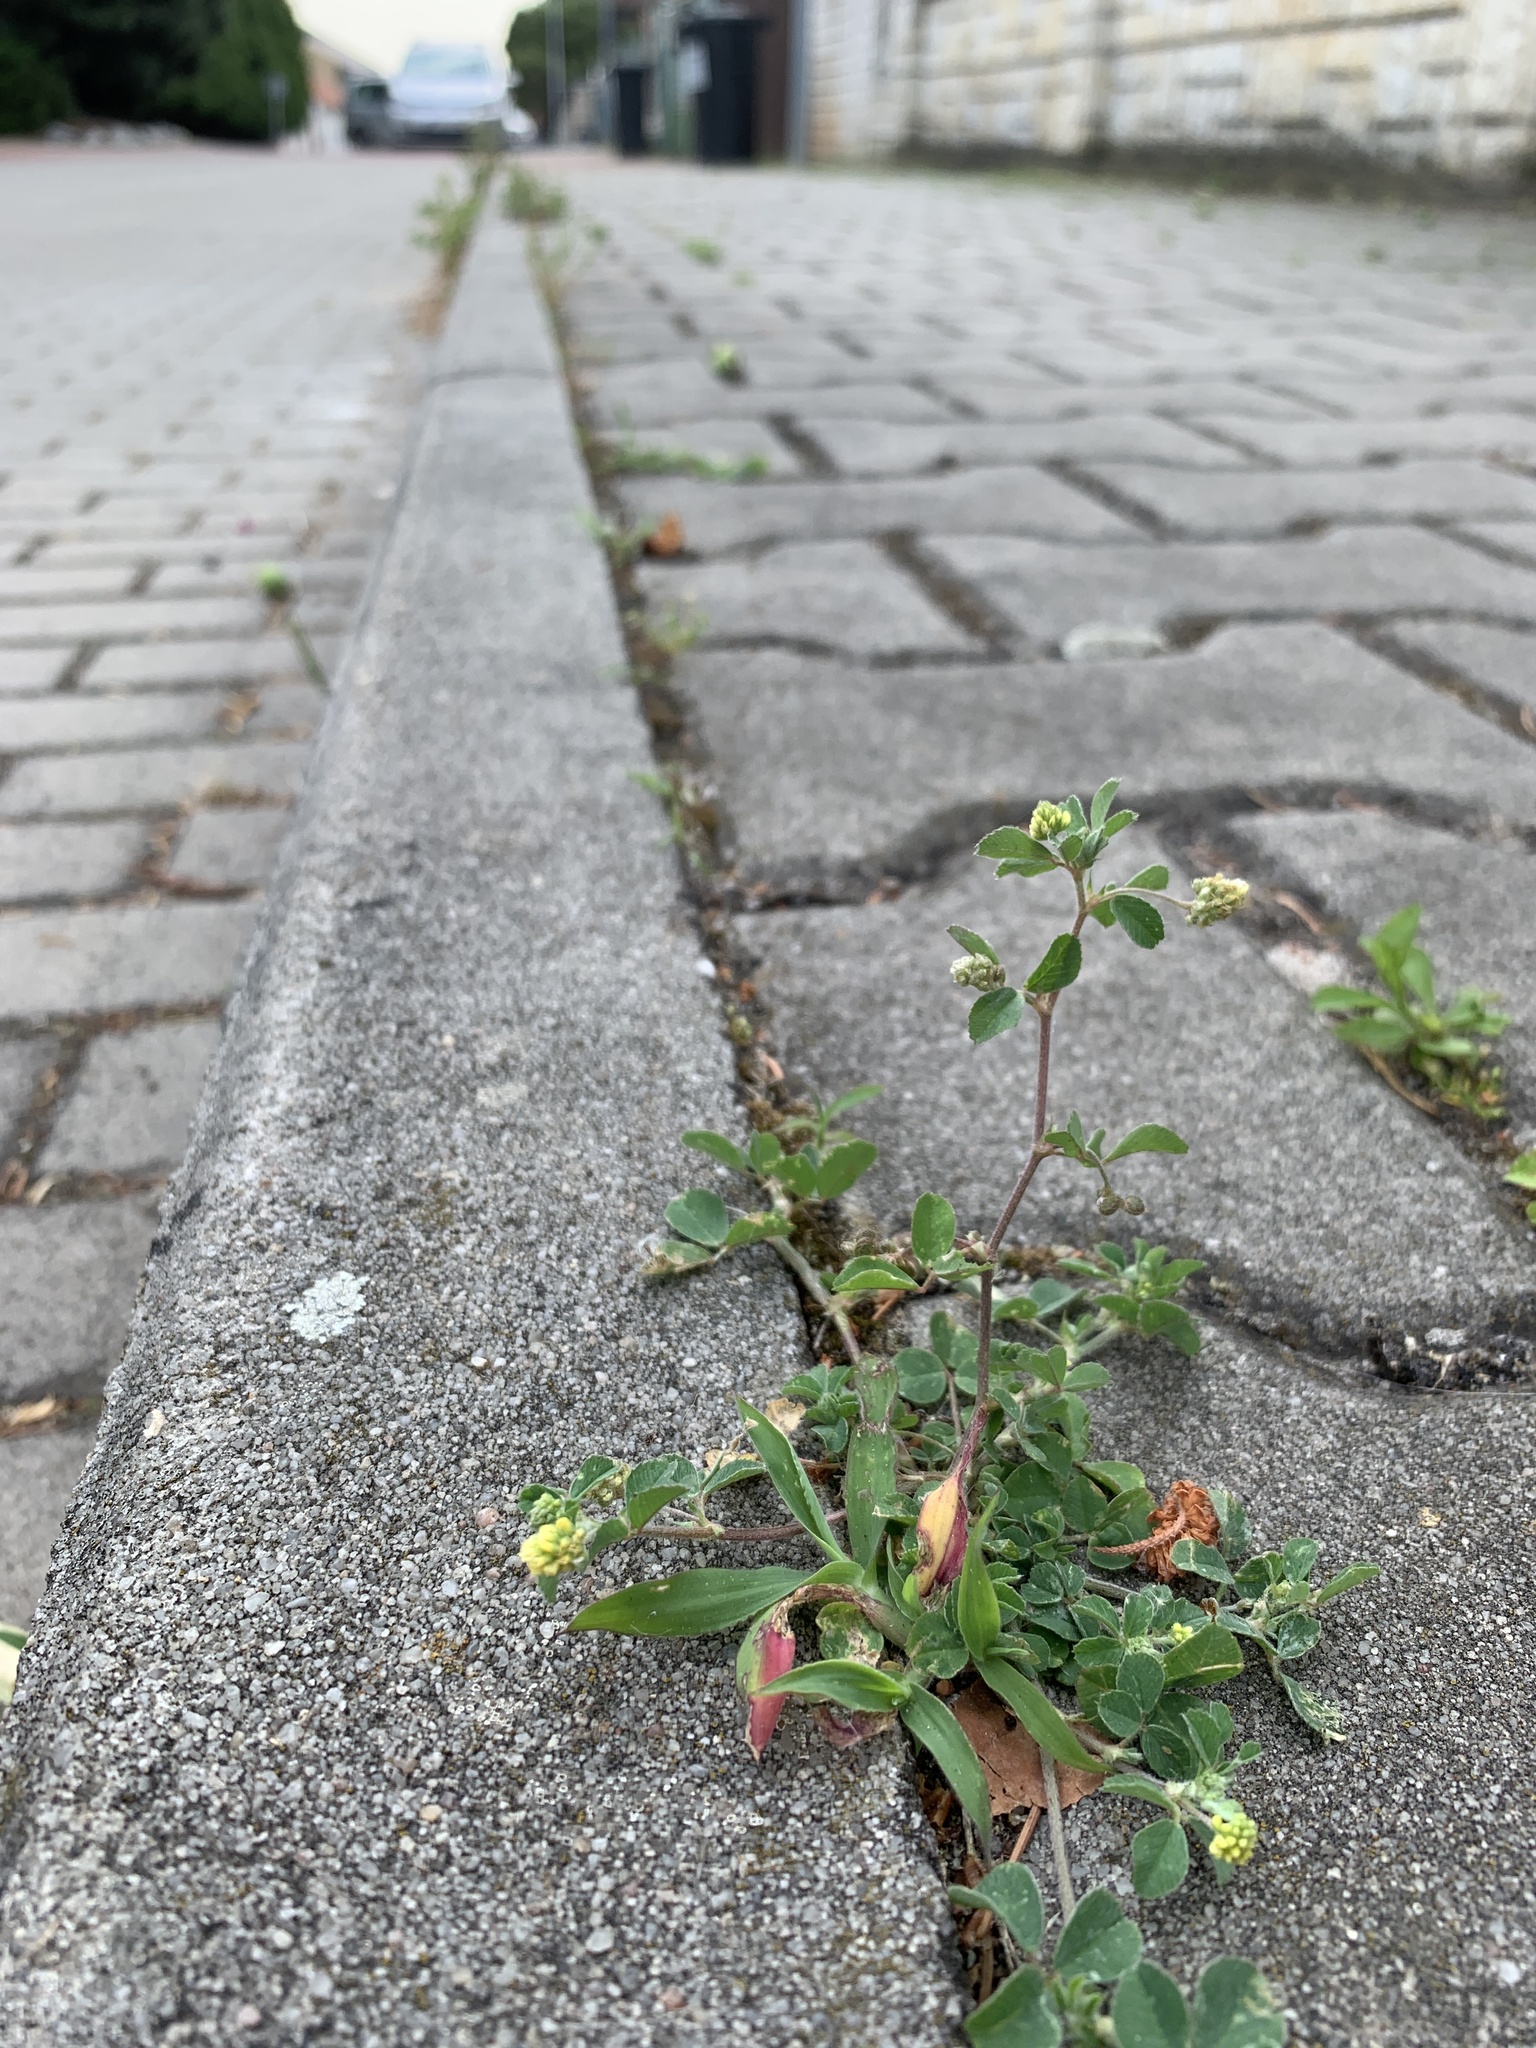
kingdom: Plantae
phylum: Tracheophyta
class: Magnoliopsida
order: Fabales
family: Fabaceae
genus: Medicago
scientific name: Medicago lupulina
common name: Black medick
